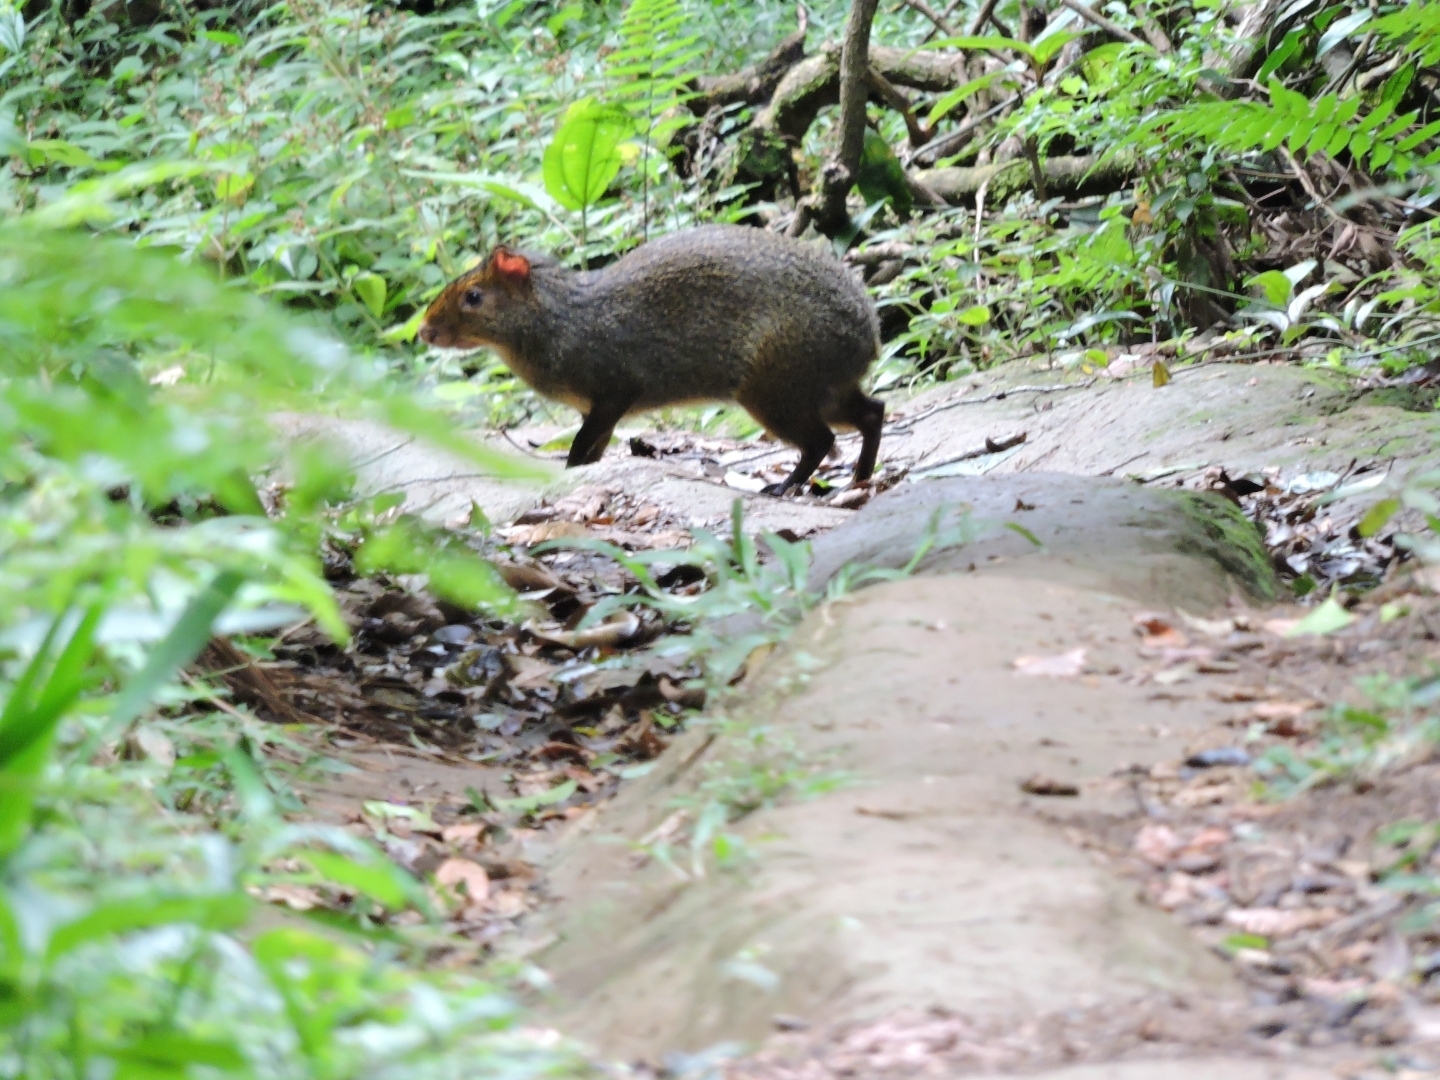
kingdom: Animalia
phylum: Chordata
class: Mammalia
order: Rodentia
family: Dasyproctidae
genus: Dasyprocta
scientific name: Dasyprocta azarae
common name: Azara's agouti
